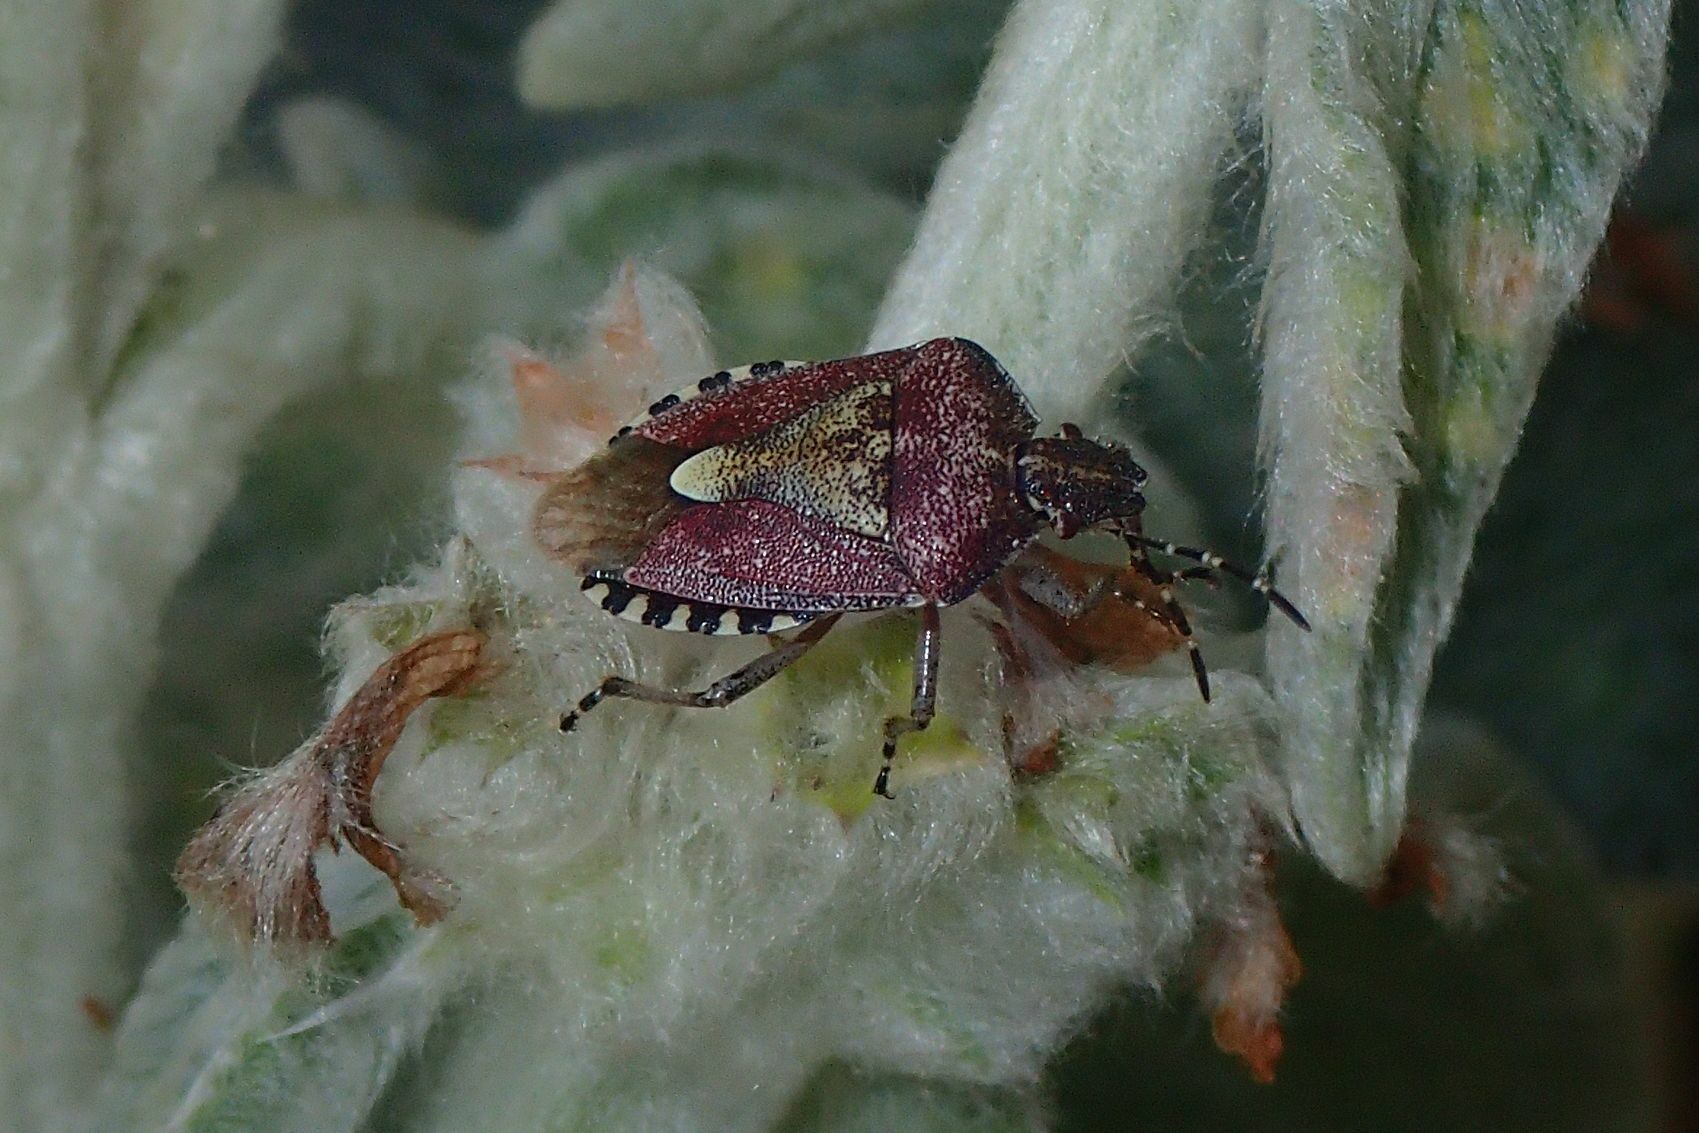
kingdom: Animalia
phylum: Arthropoda
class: Insecta
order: Hemiptera
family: Pentatomidae
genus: Dolycoris
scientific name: Dolycoris baccarum
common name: Sloe bug
